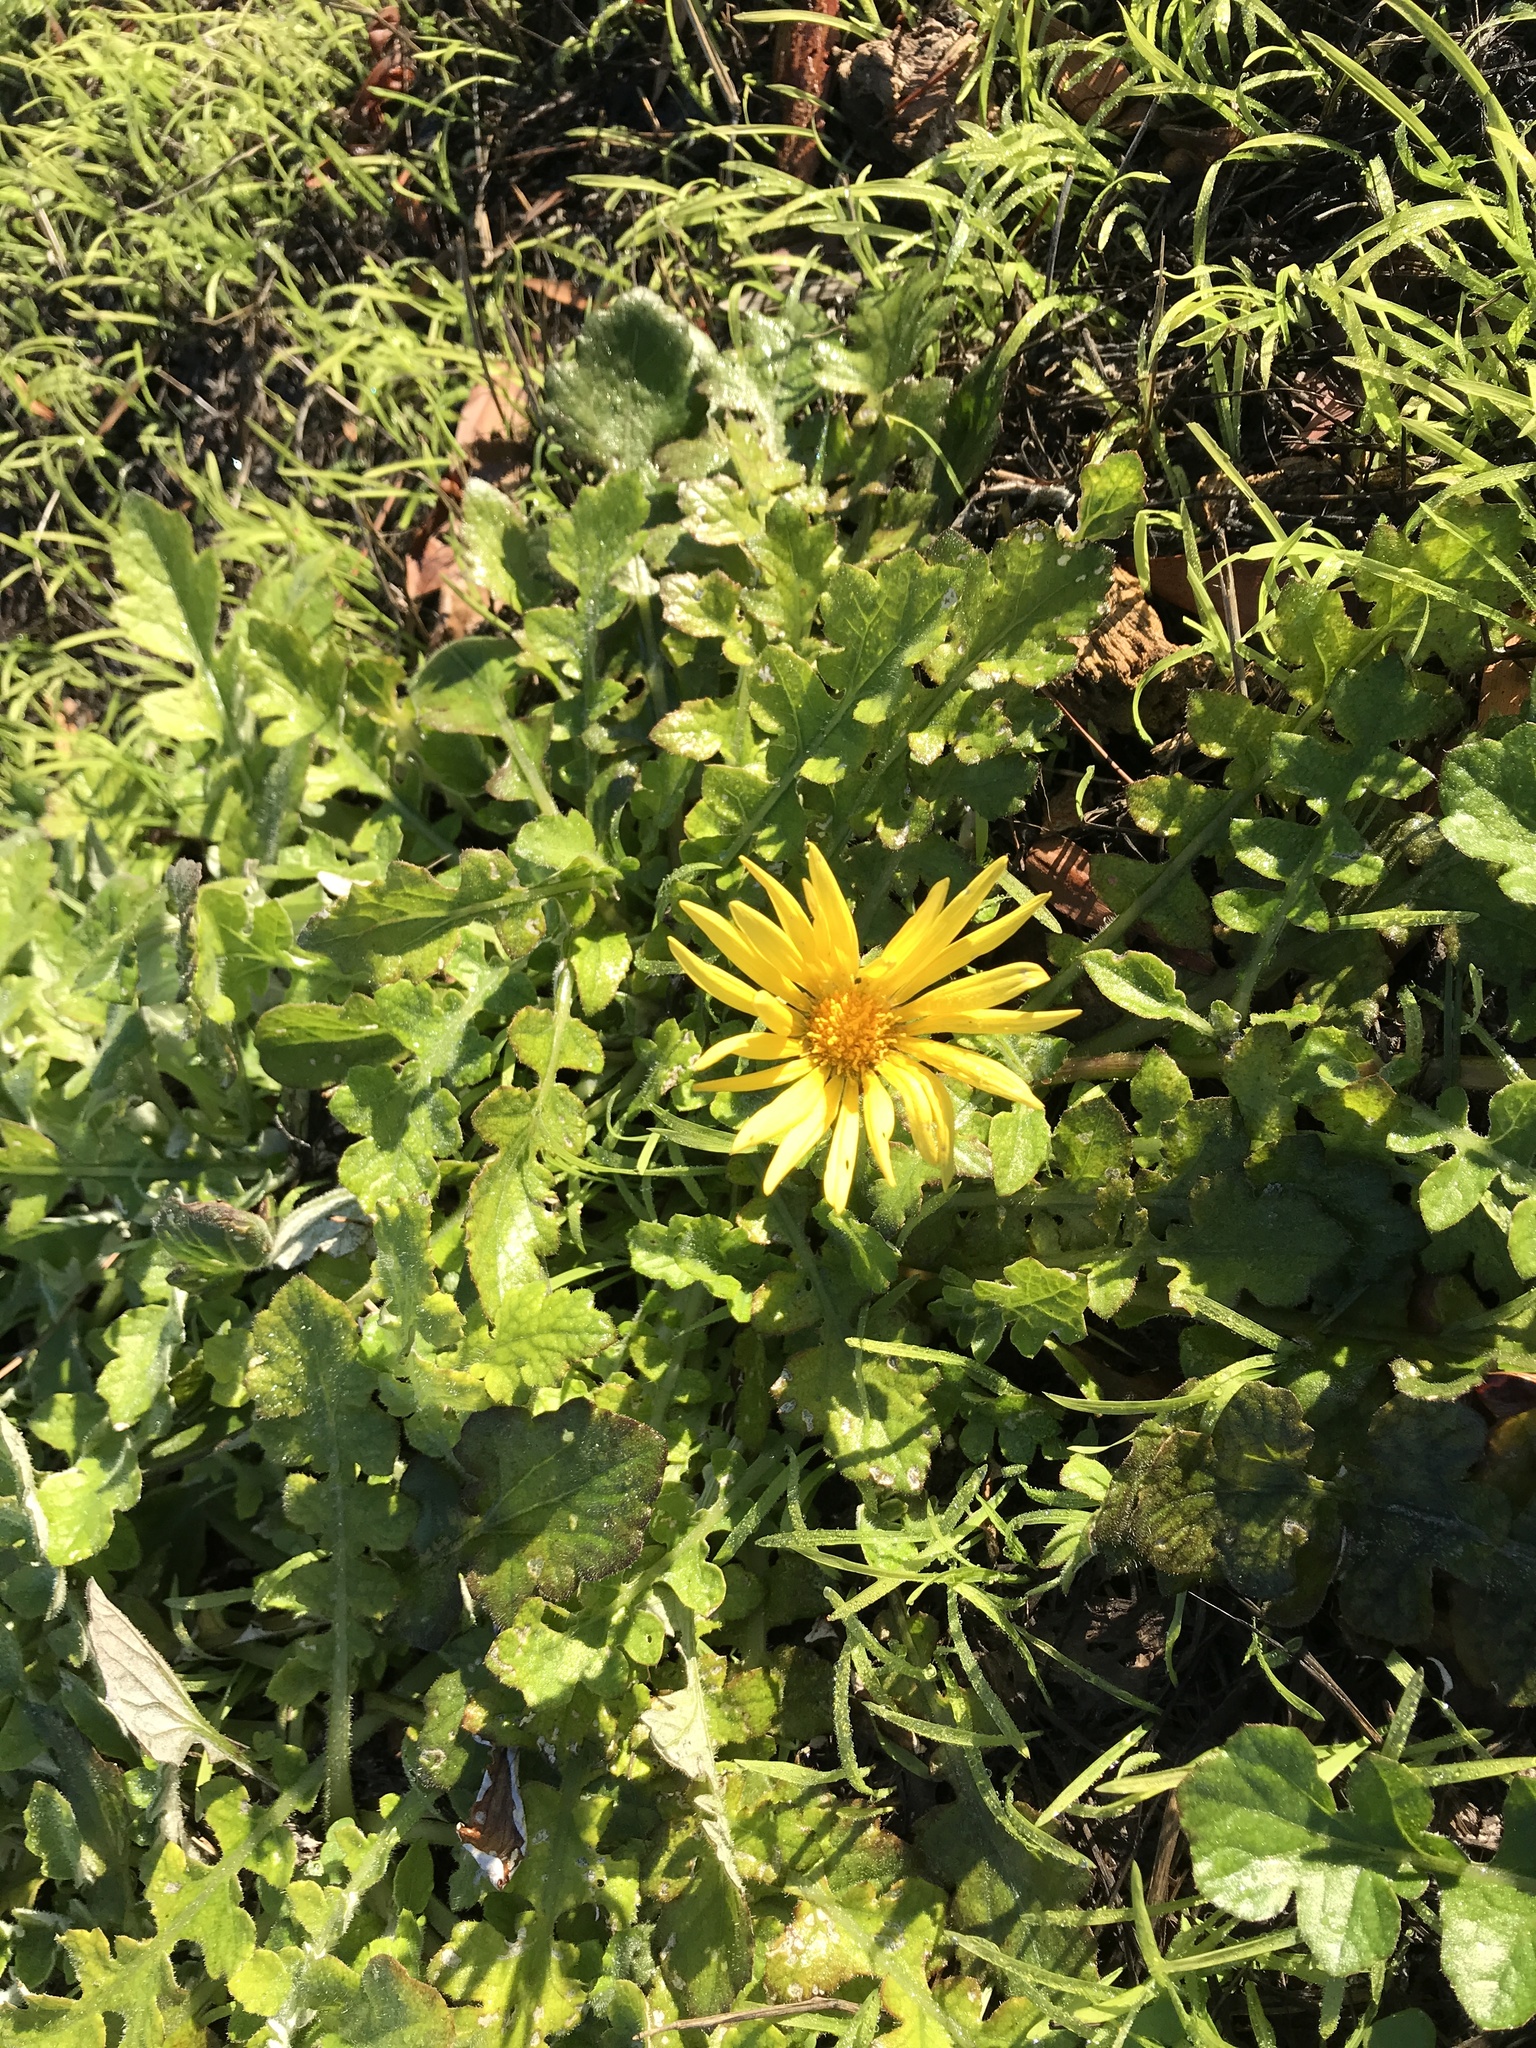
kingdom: Plantae
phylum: Tracheophyta
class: Magnoliopsida
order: Asterales
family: Asteraceae
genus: Arctotheca
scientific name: Arctotheca prostrata
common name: Capeweed
